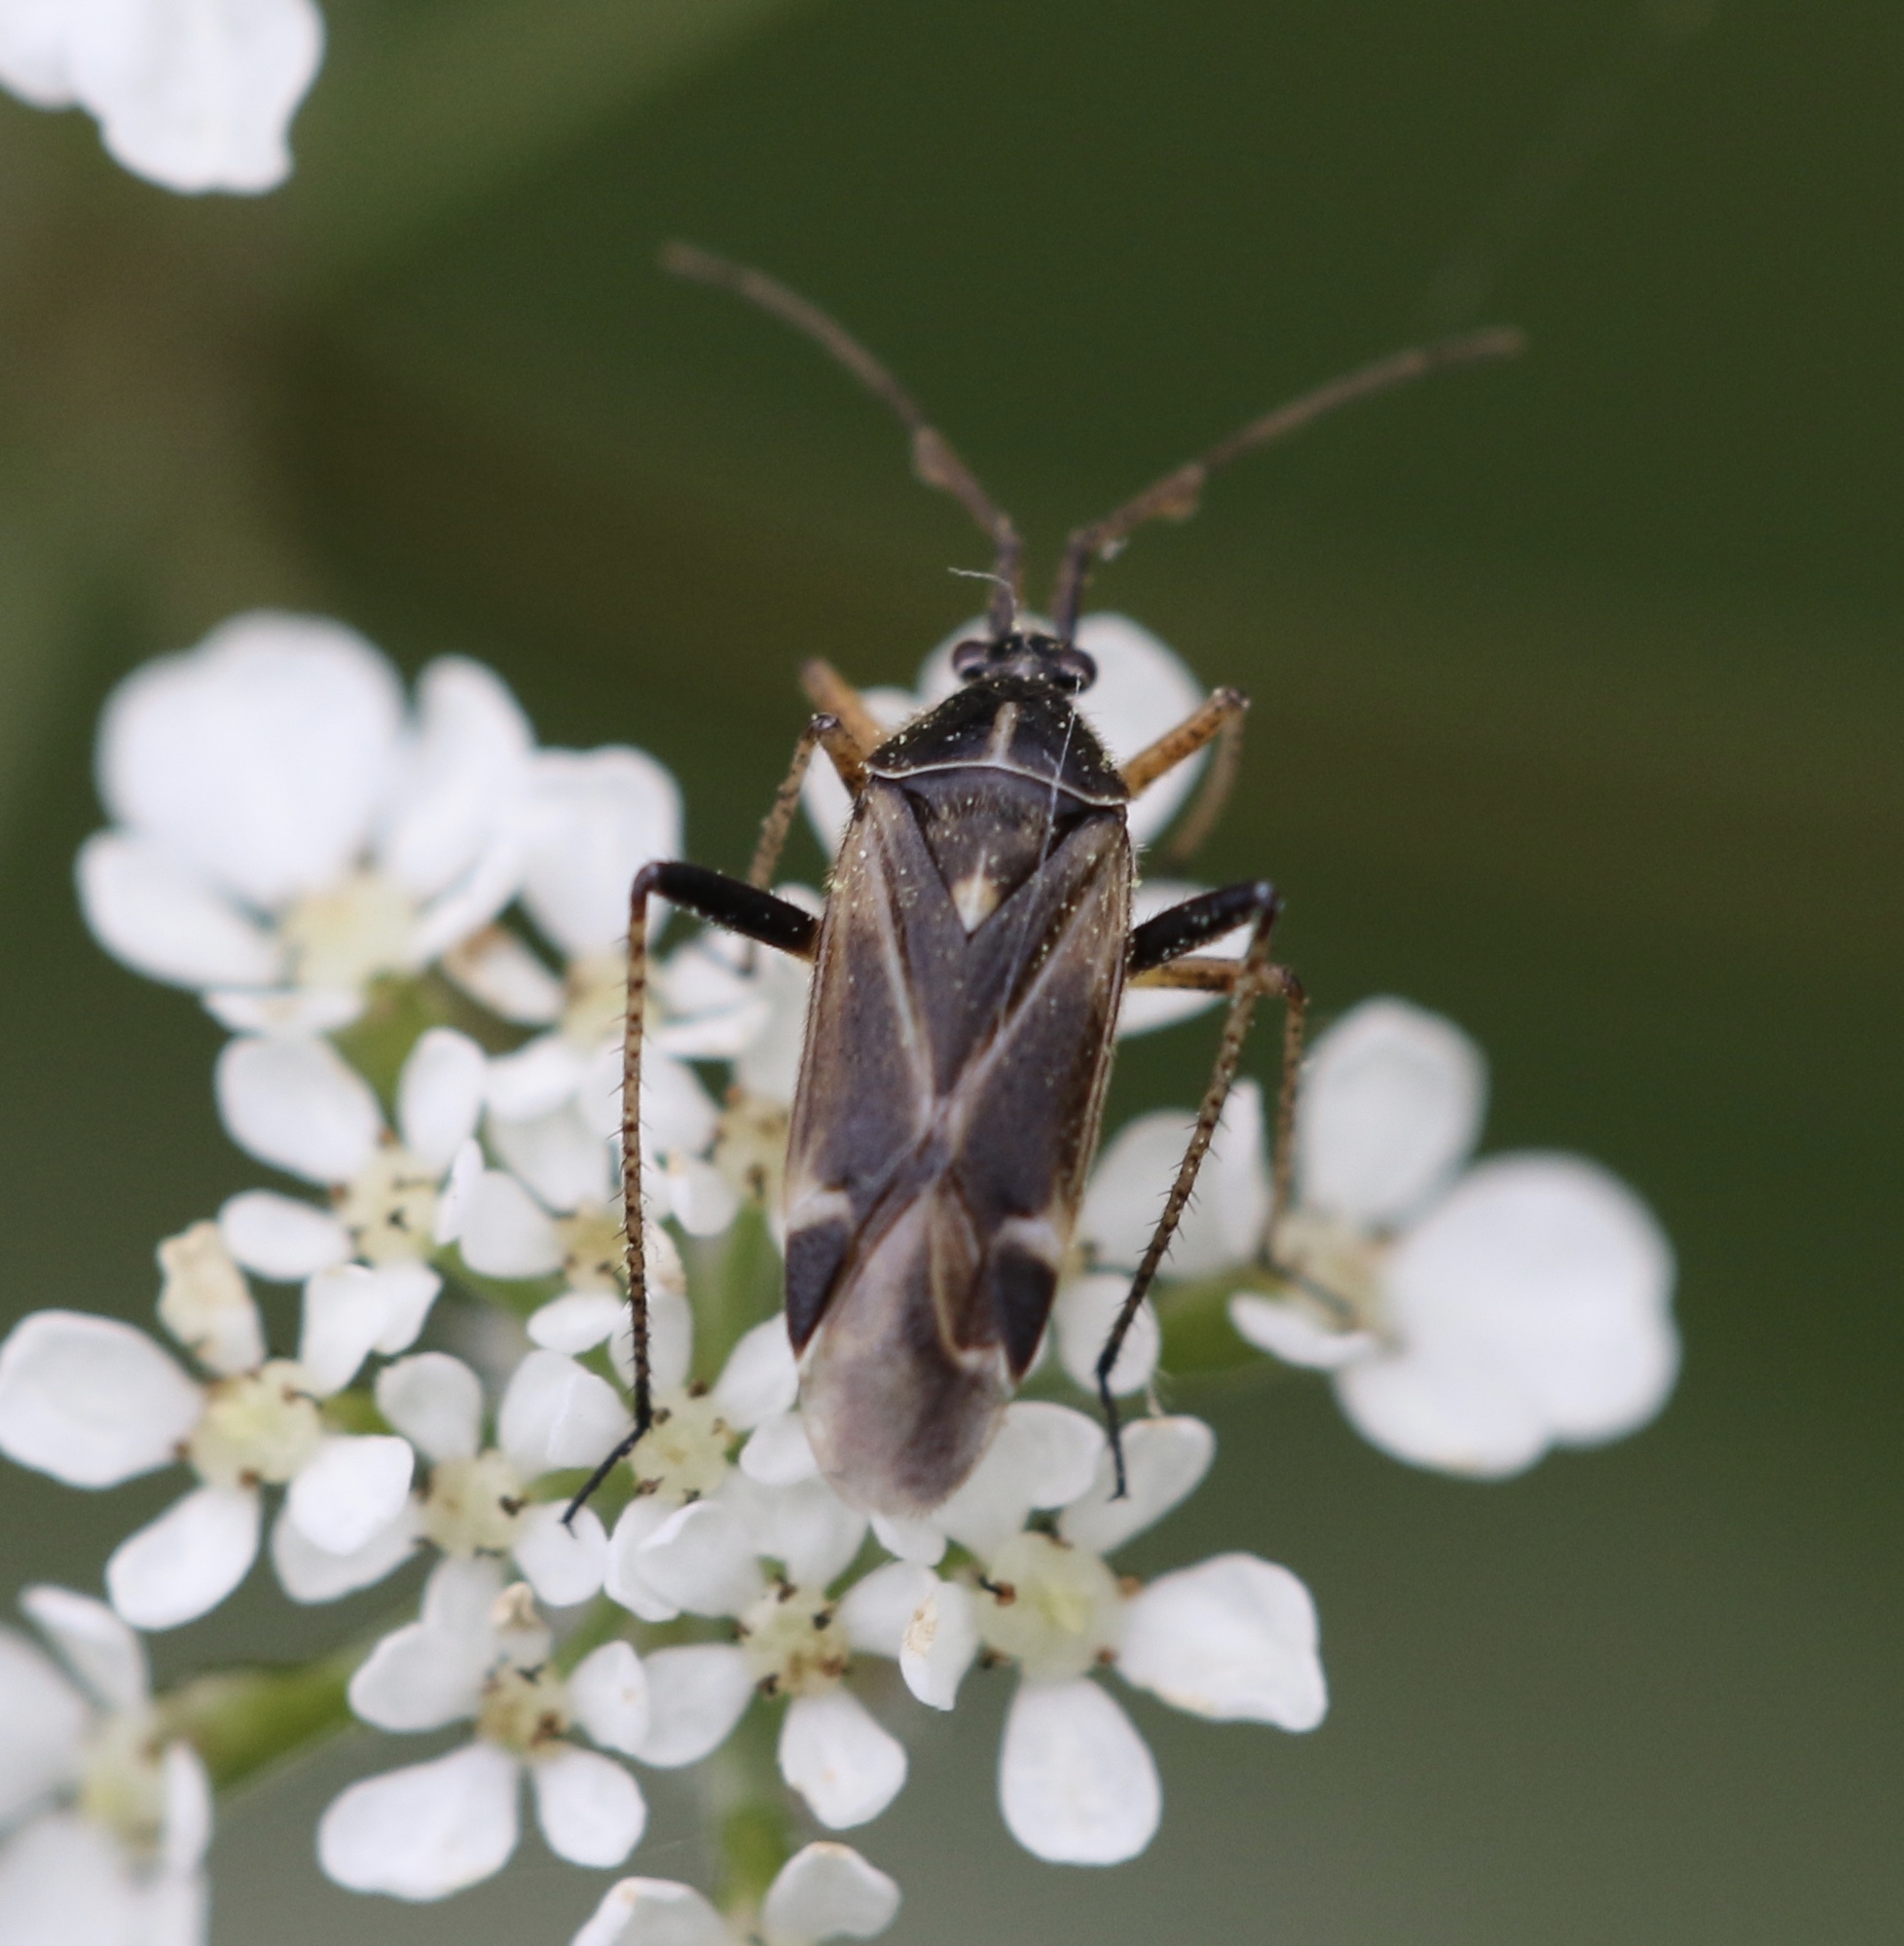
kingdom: Animalia
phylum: Arthropoda
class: Insecta
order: Hemiptera
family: Miridae
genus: Harpocera
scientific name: Harpocera thoracica
